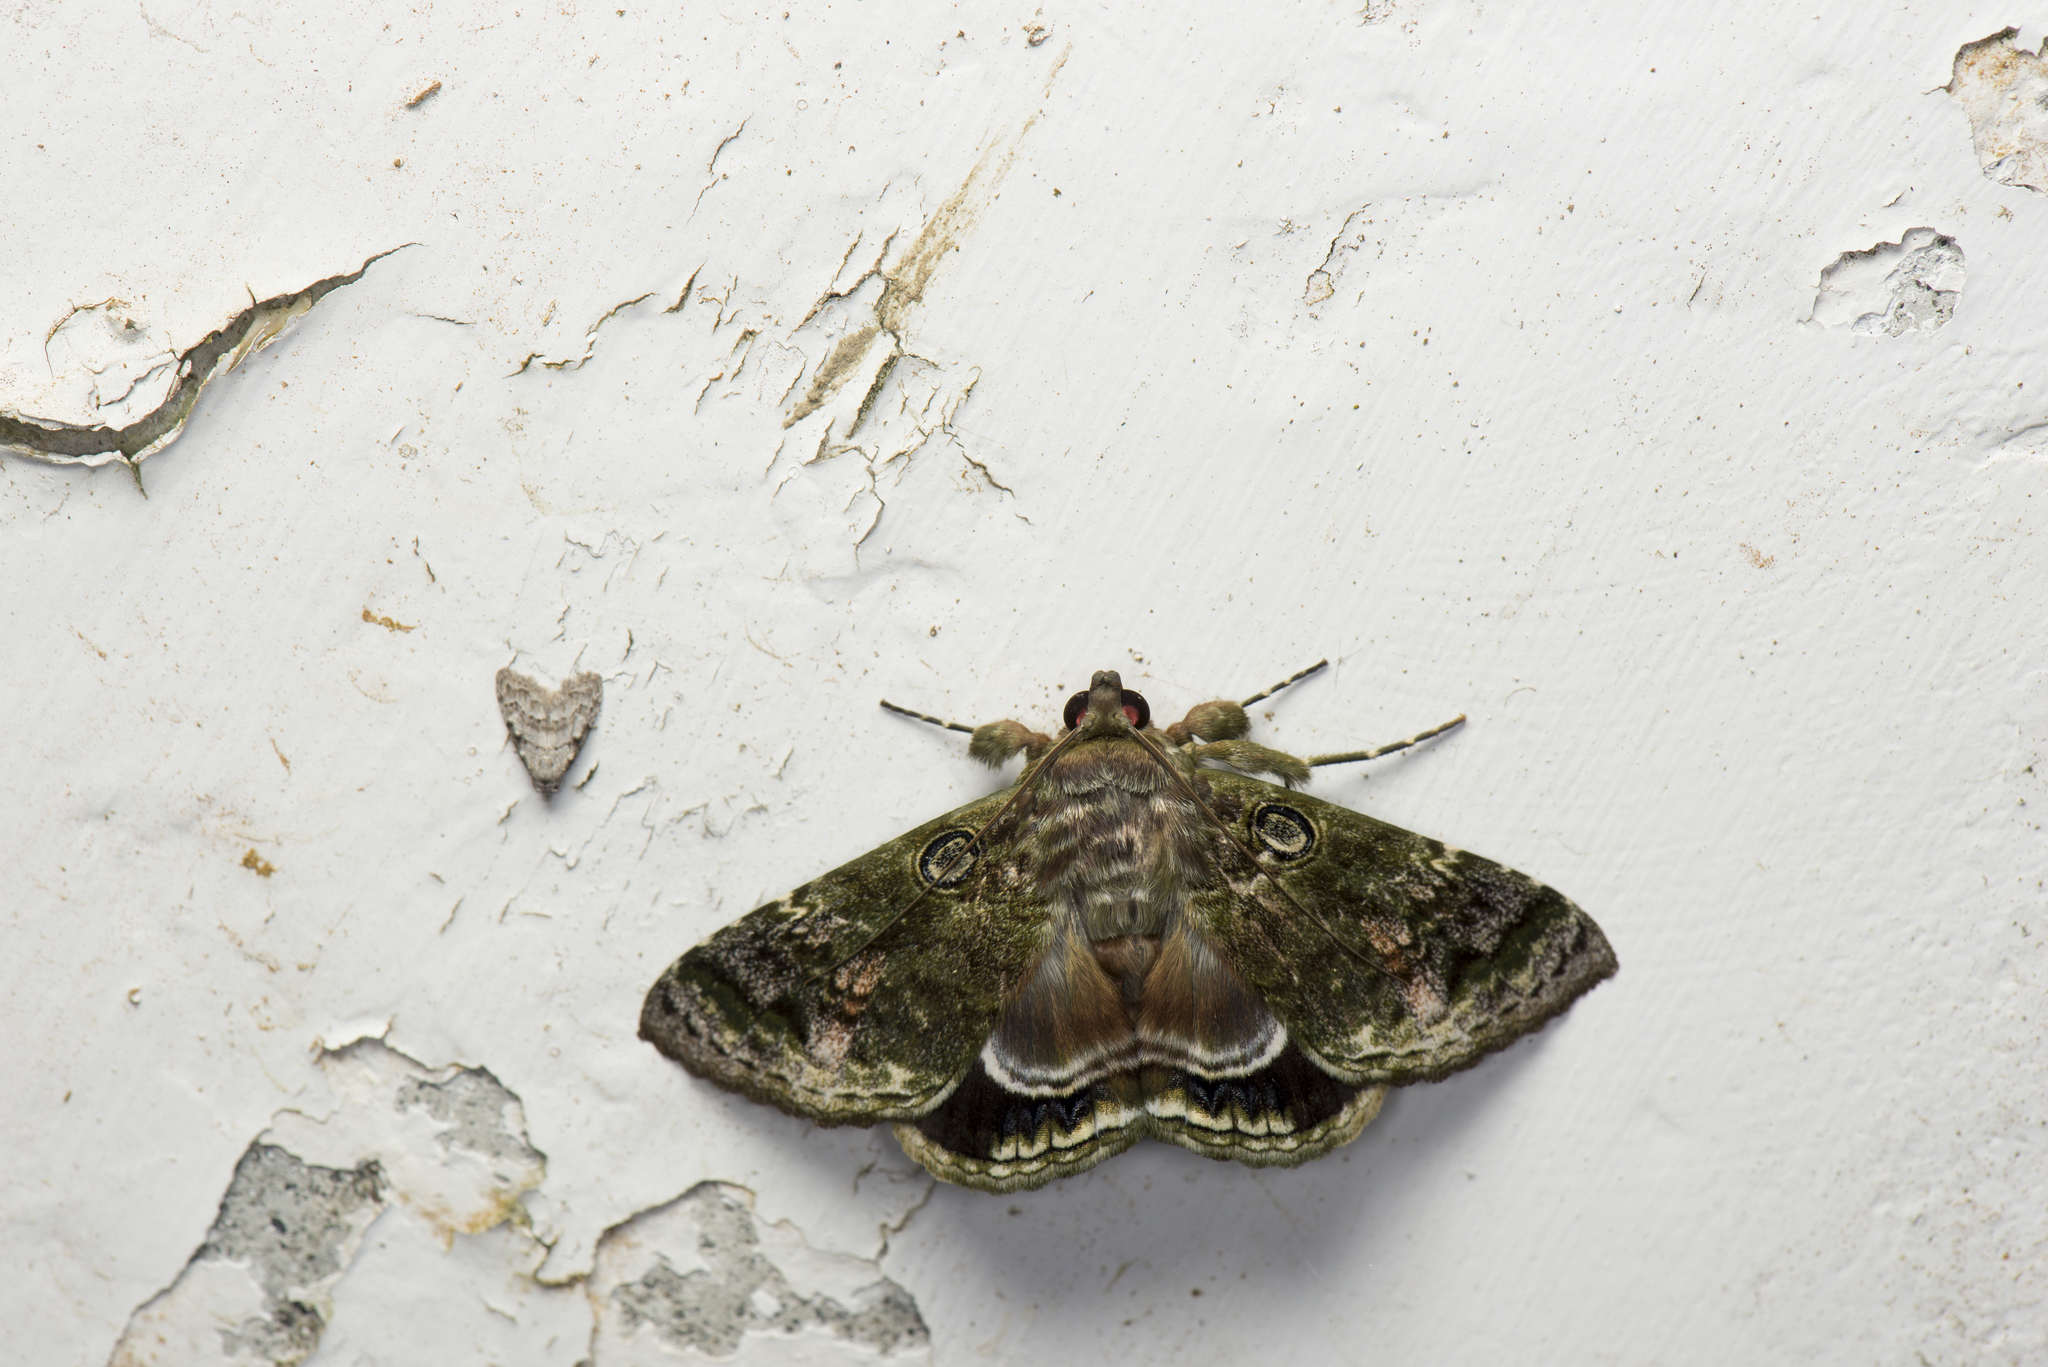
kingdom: Animalia
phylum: Arthropoda
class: Insecta
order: Lepidoptera
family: Erebidae
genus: Cyclodes
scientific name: Cyclodes omma
